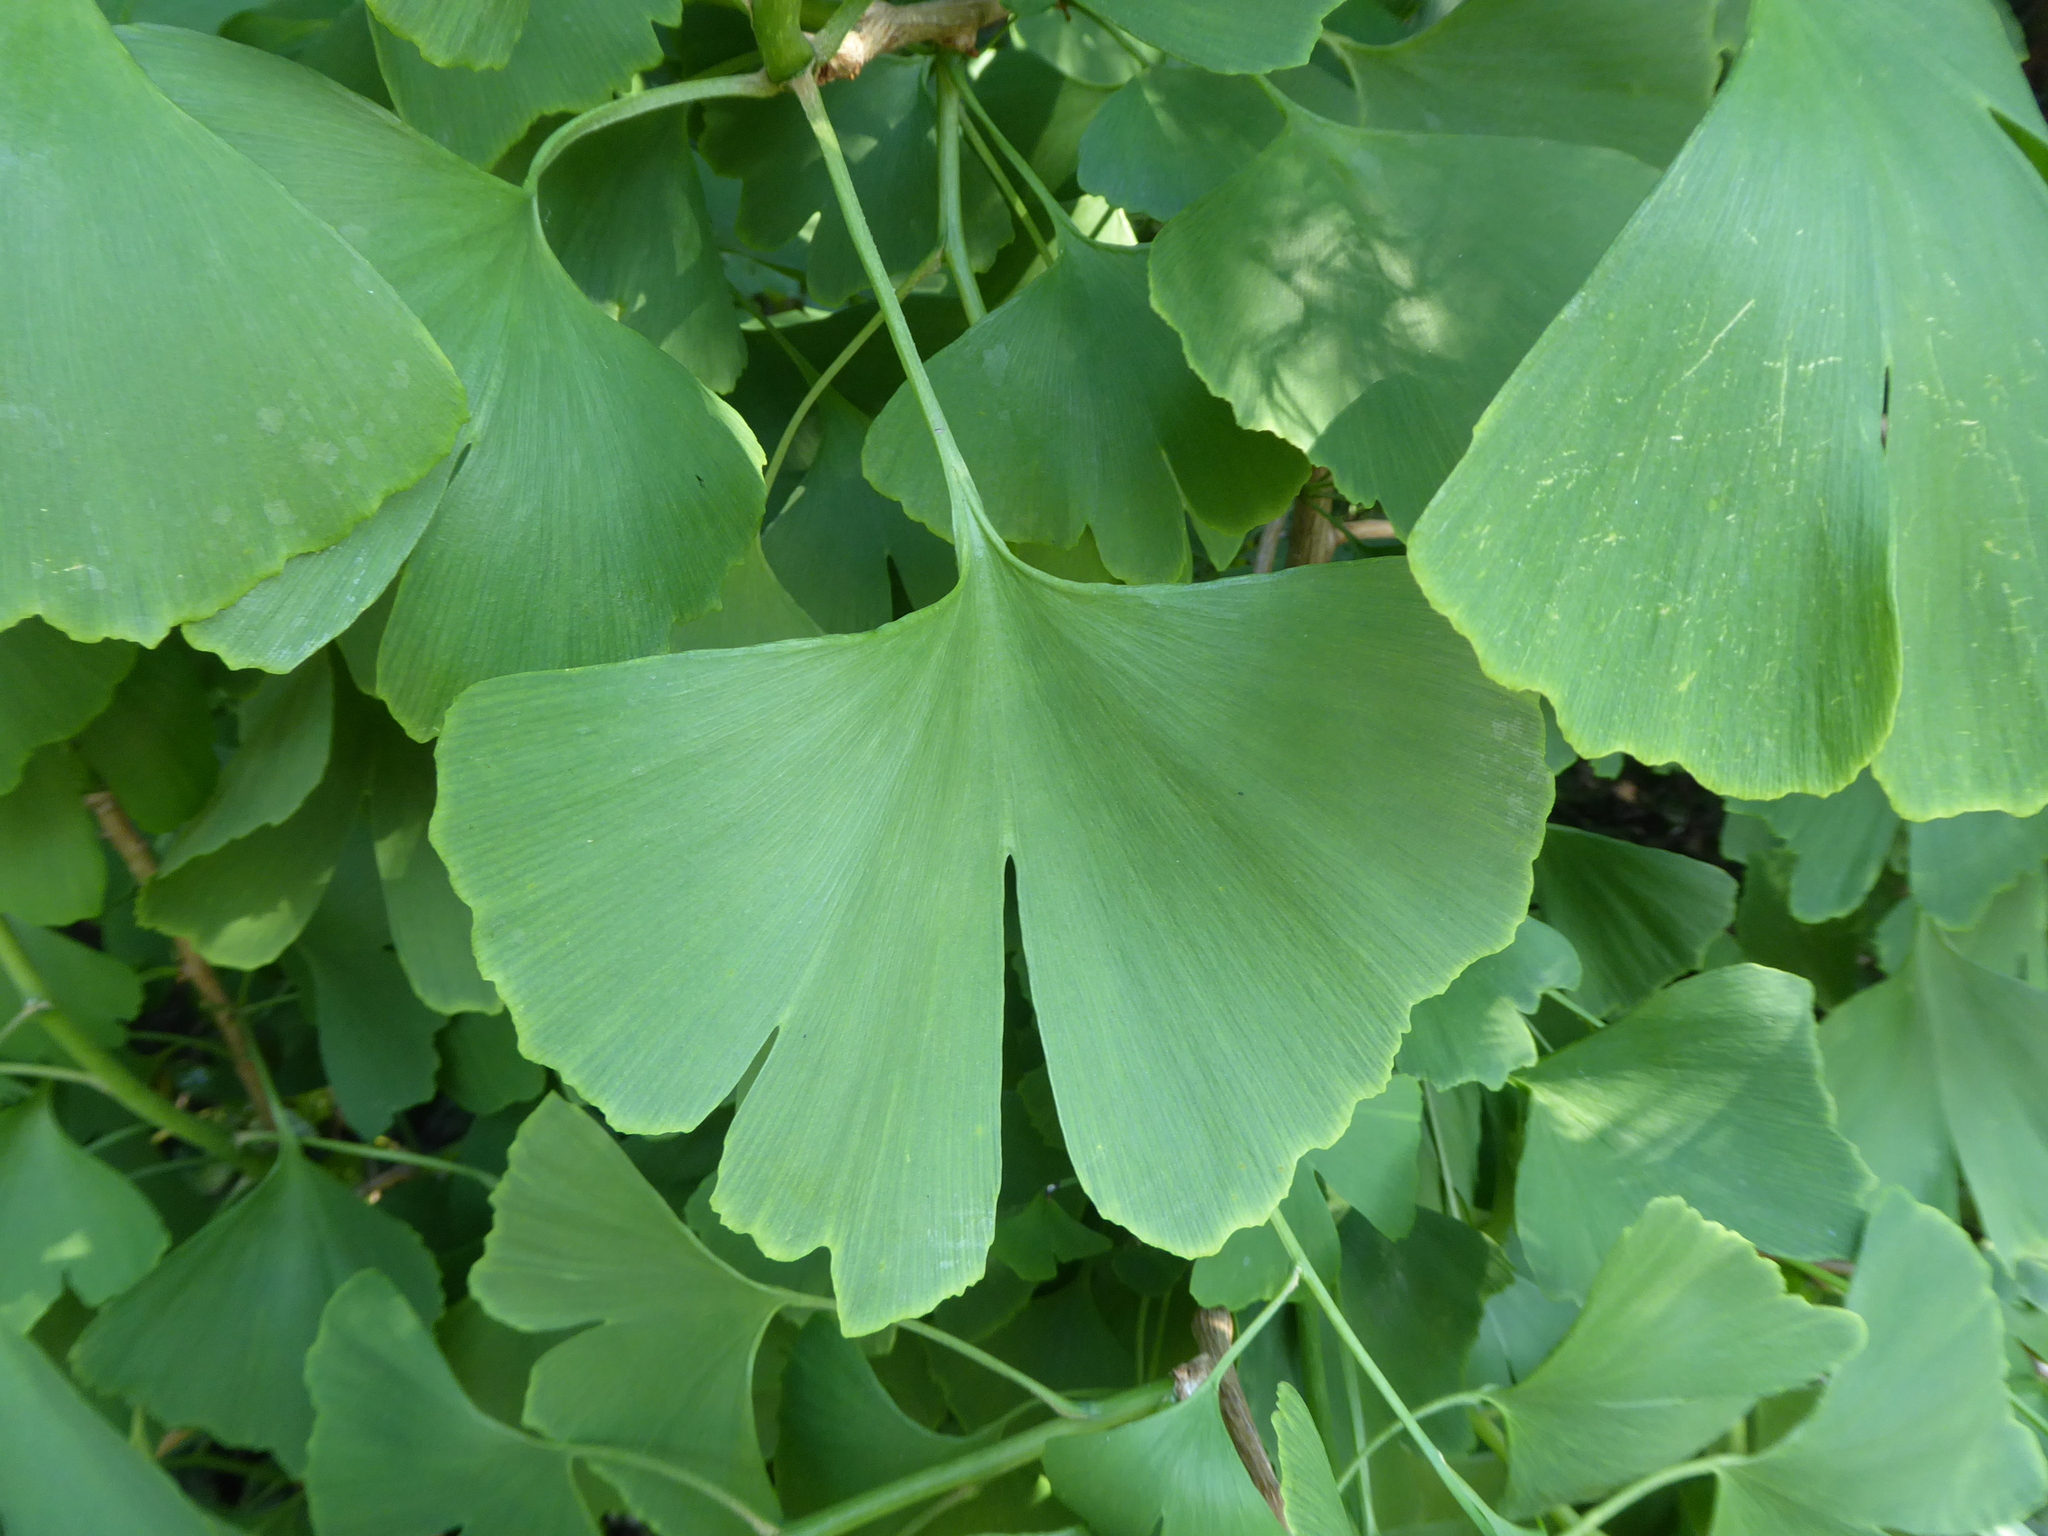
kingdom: Plantae
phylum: Tracheophyta
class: Ginkgoopsida
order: Ginkgoales
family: Ginkgoaceae
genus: Ginkgo
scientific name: Ginkgo biloba
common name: Ginkgo
